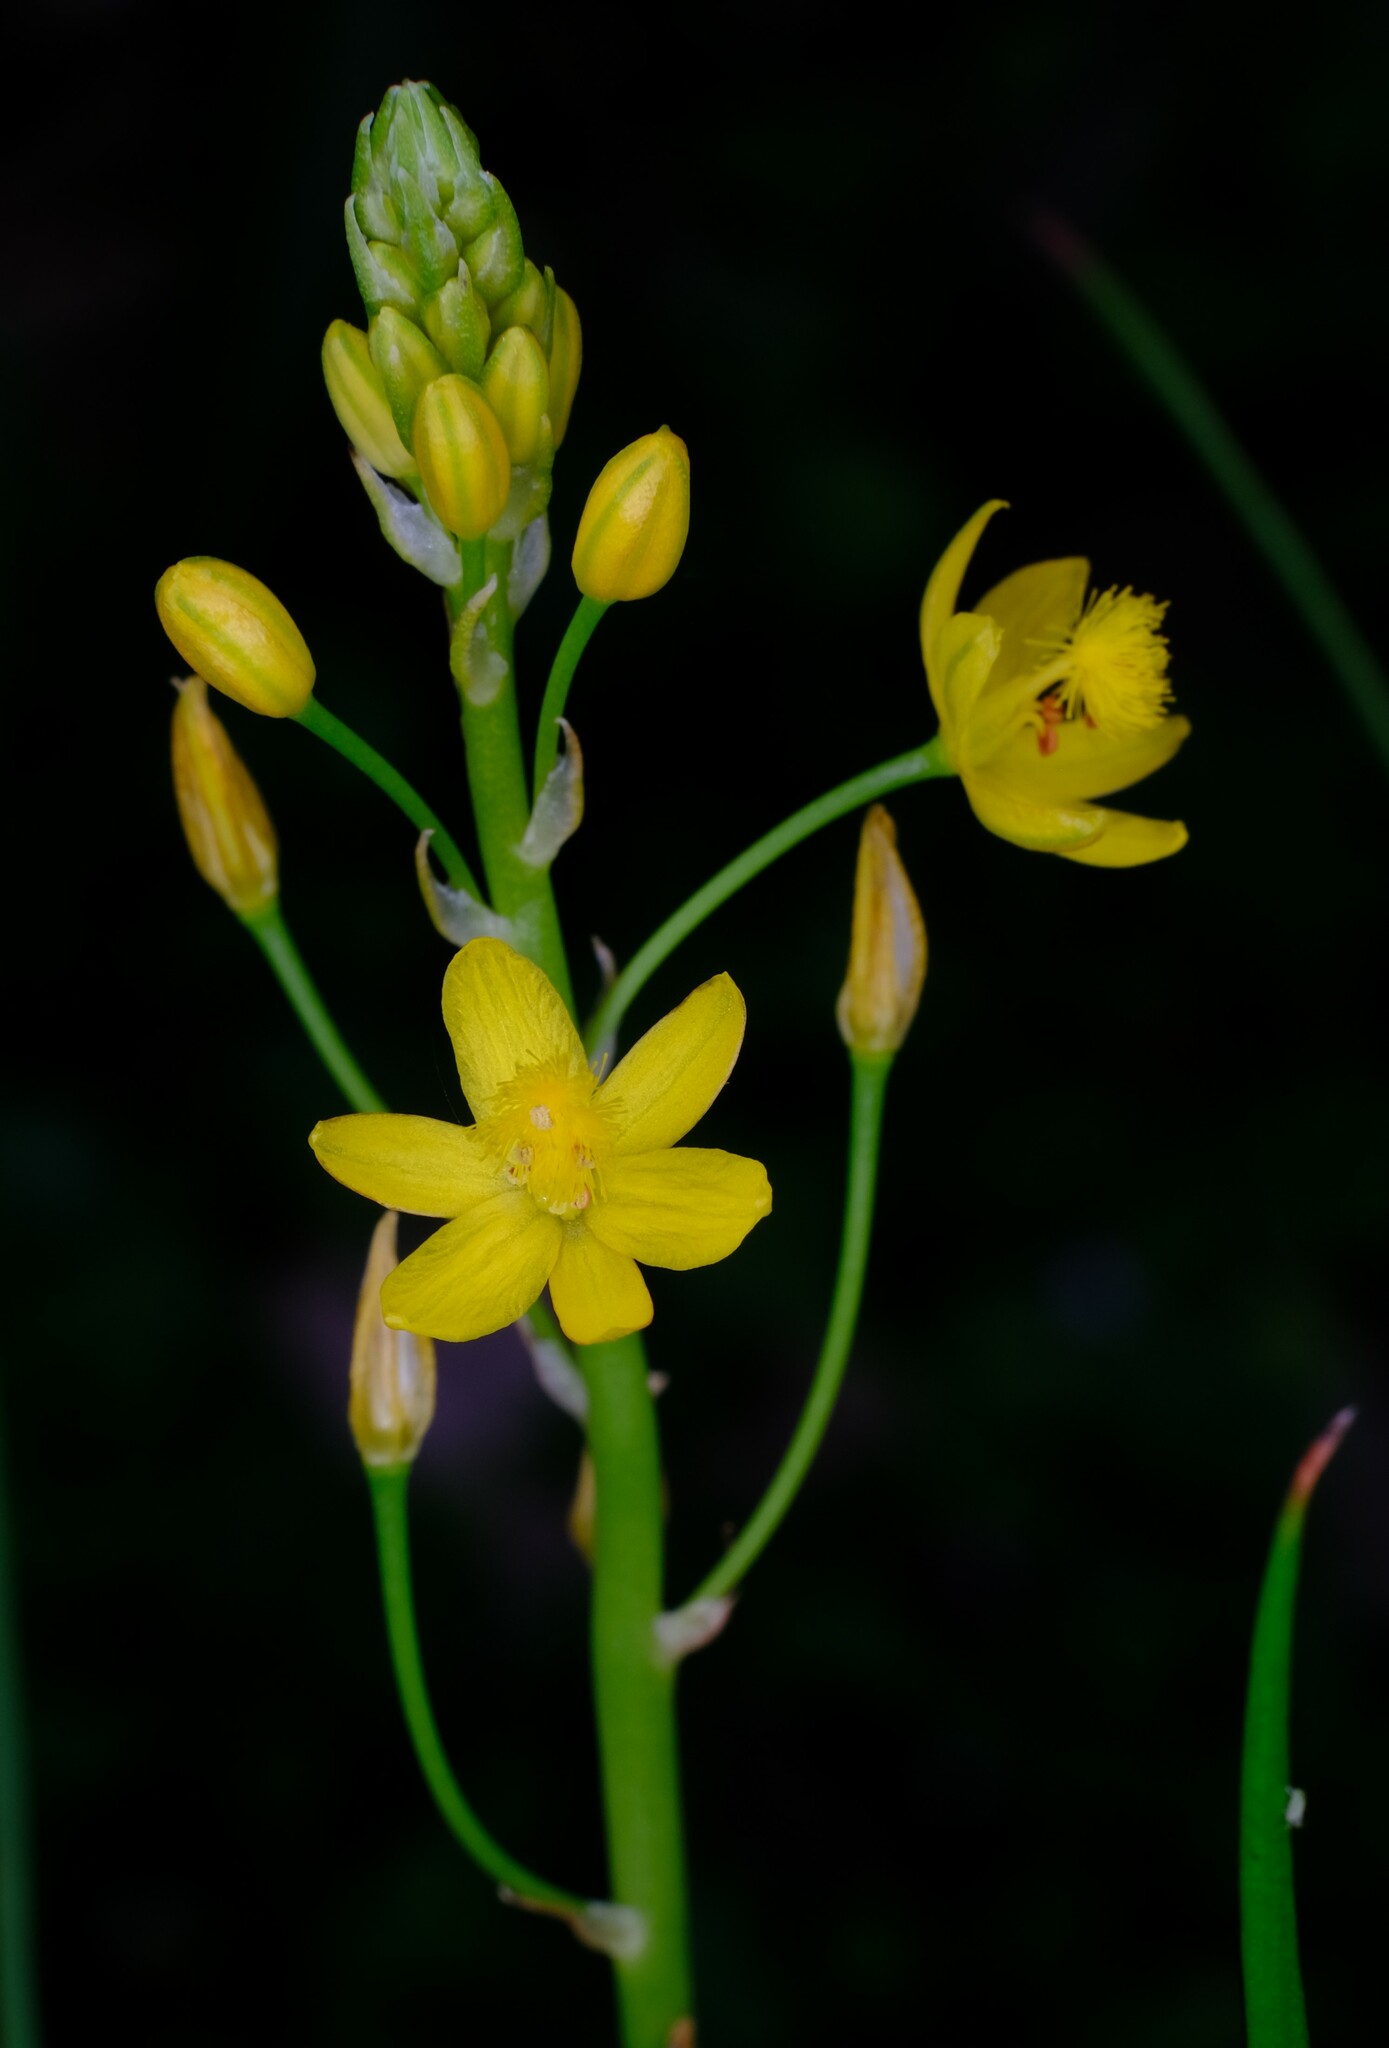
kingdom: Plantae
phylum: Tracheophyta
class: Liliopsida
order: Asparagales
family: Asphodelaceae
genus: Bulbine
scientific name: Bulbine bulbosa
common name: Golden-lily
